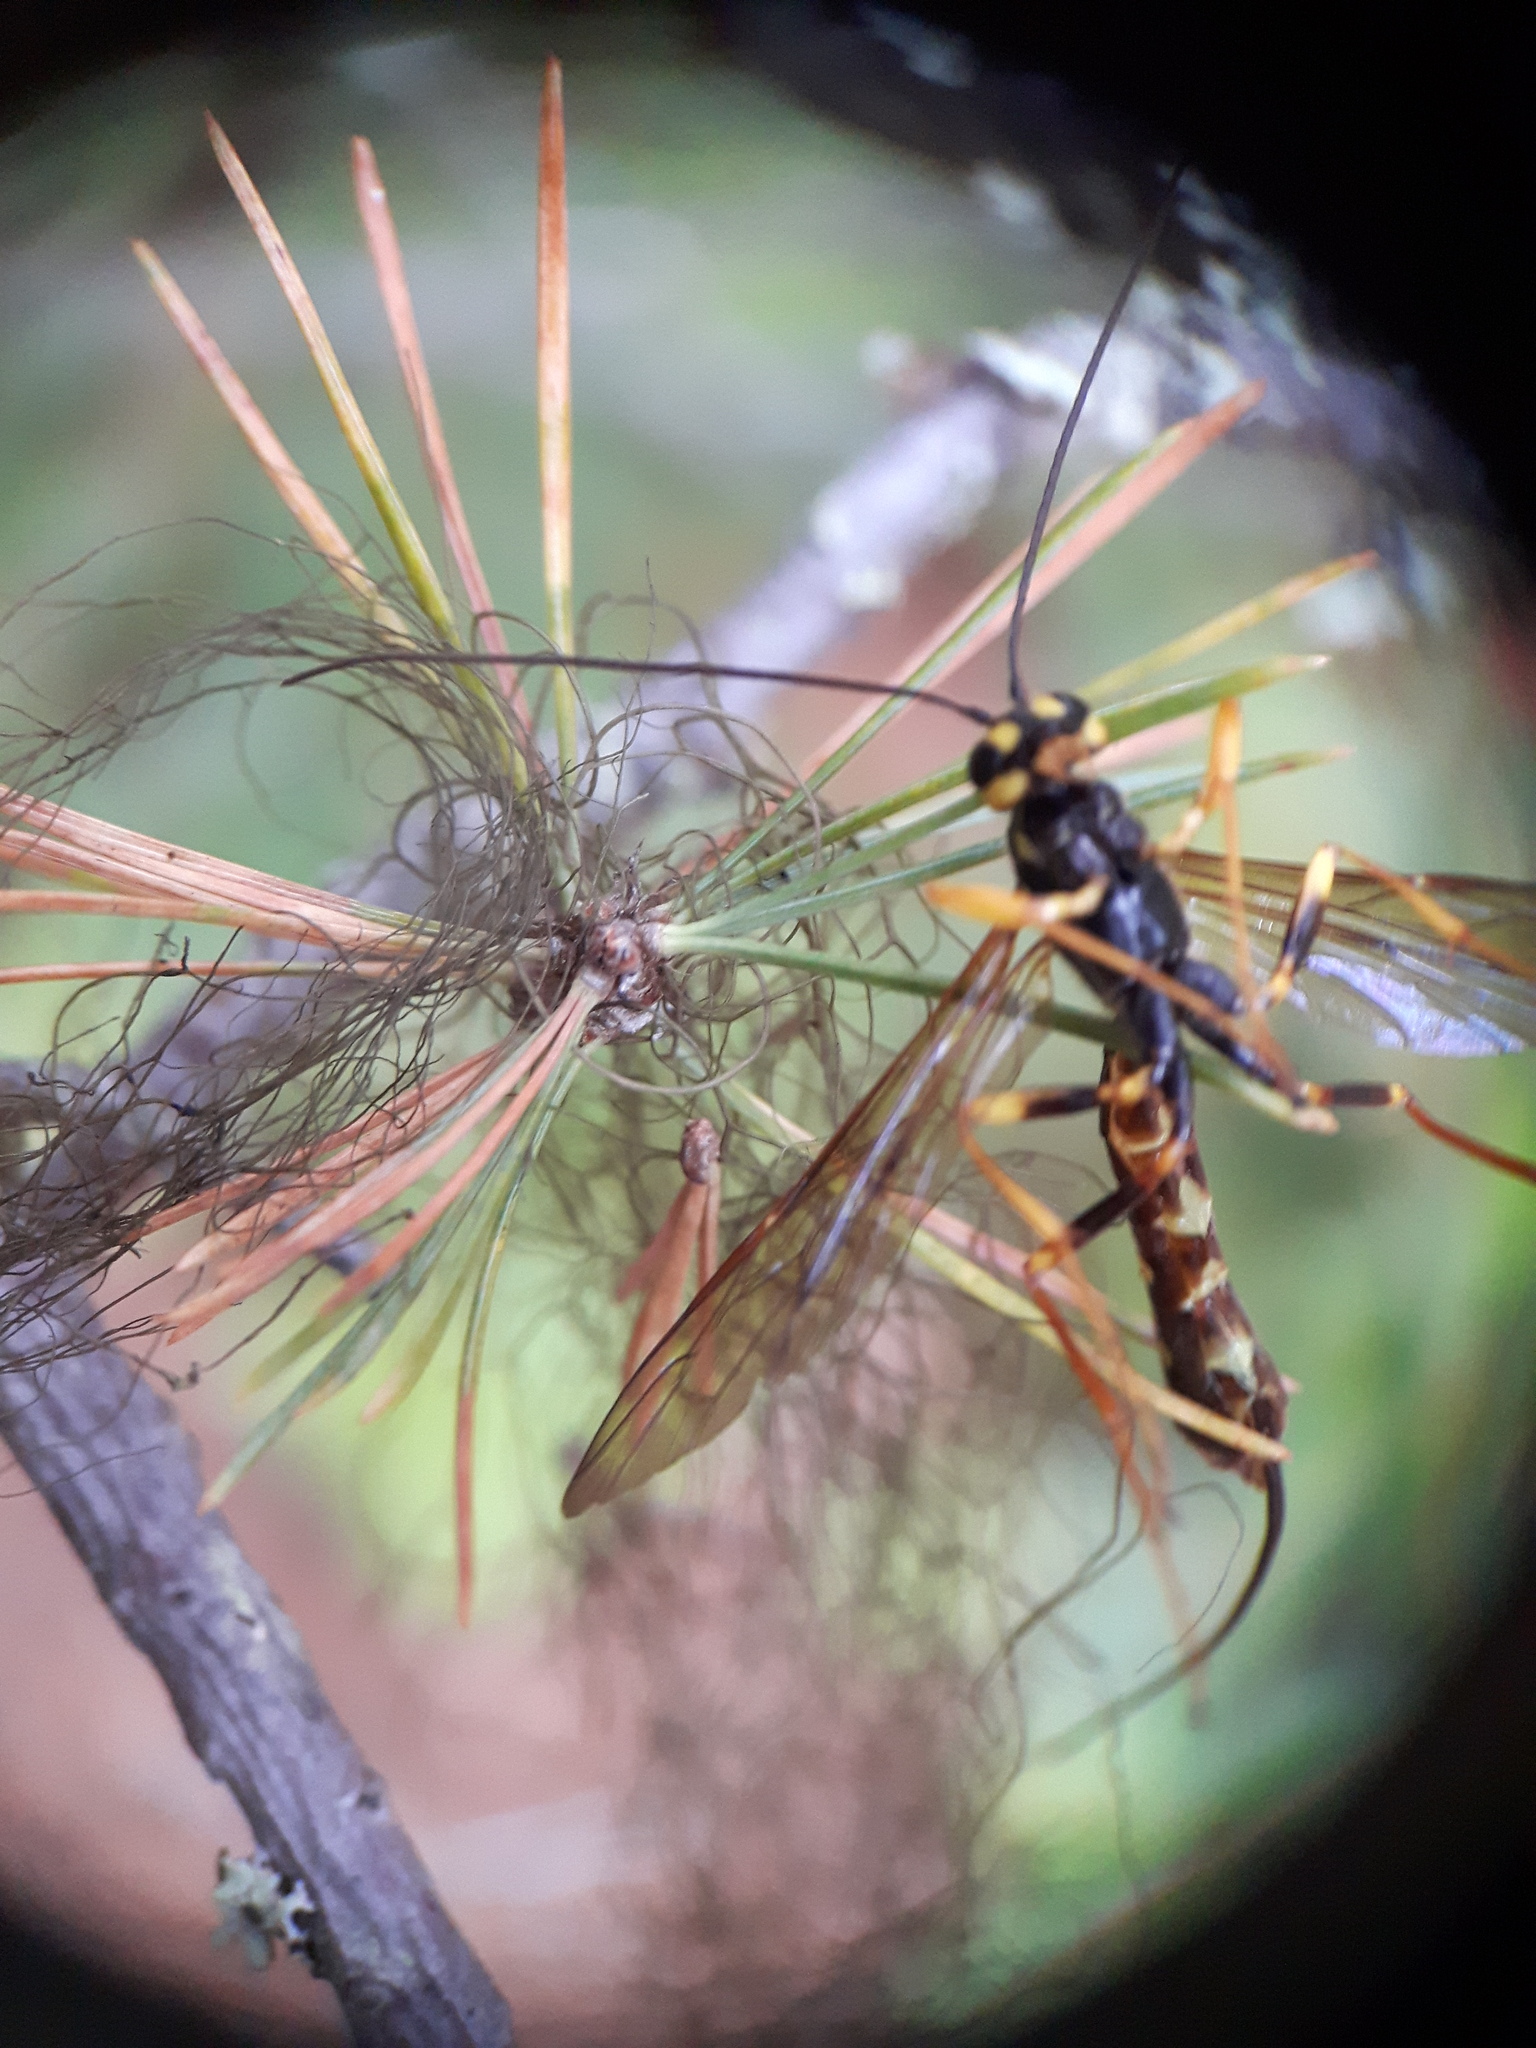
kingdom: Animalia
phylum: Arthropoda
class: Insecta
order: Hymenoptera
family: Ichneumonidae
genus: Megarhyssa
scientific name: Megarhyssa nortoni
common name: Norton's giant ichneumonid wasp
